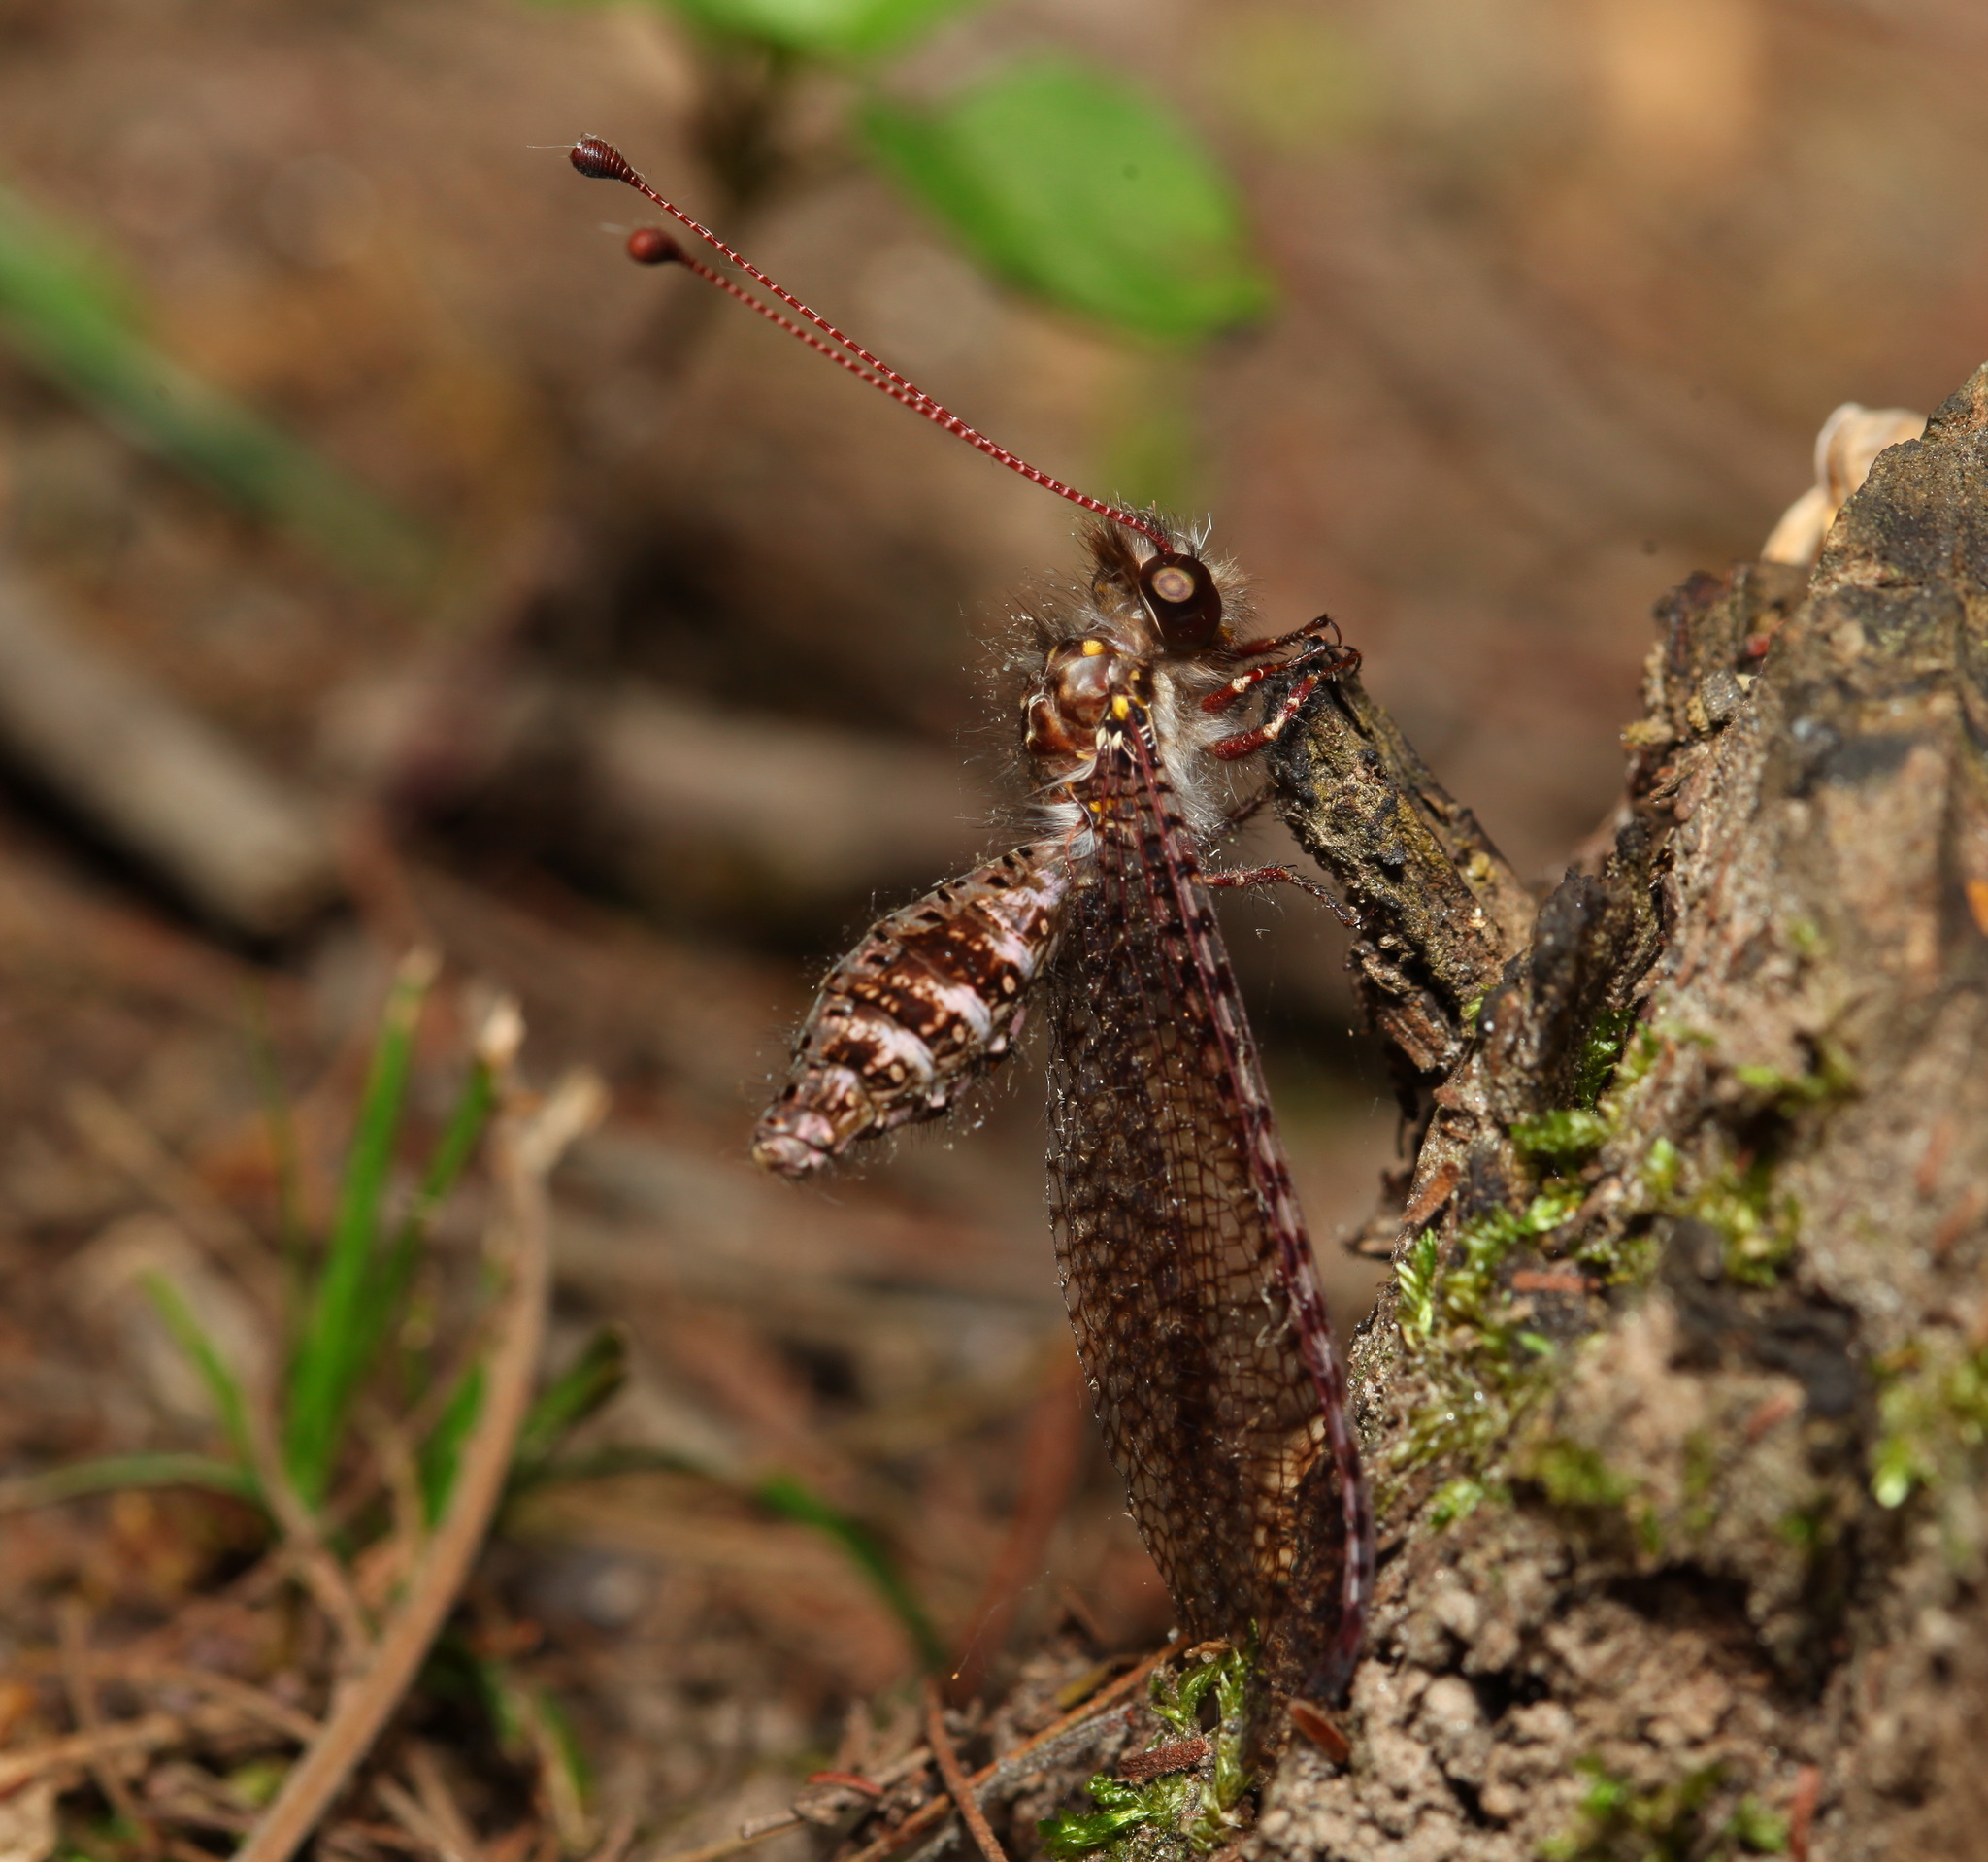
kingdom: Animalia
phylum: Arthropoda
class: Insecta
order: Neuroptera
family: Ascalaphidae
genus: Nephoneura
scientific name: Nephoneura capensis
